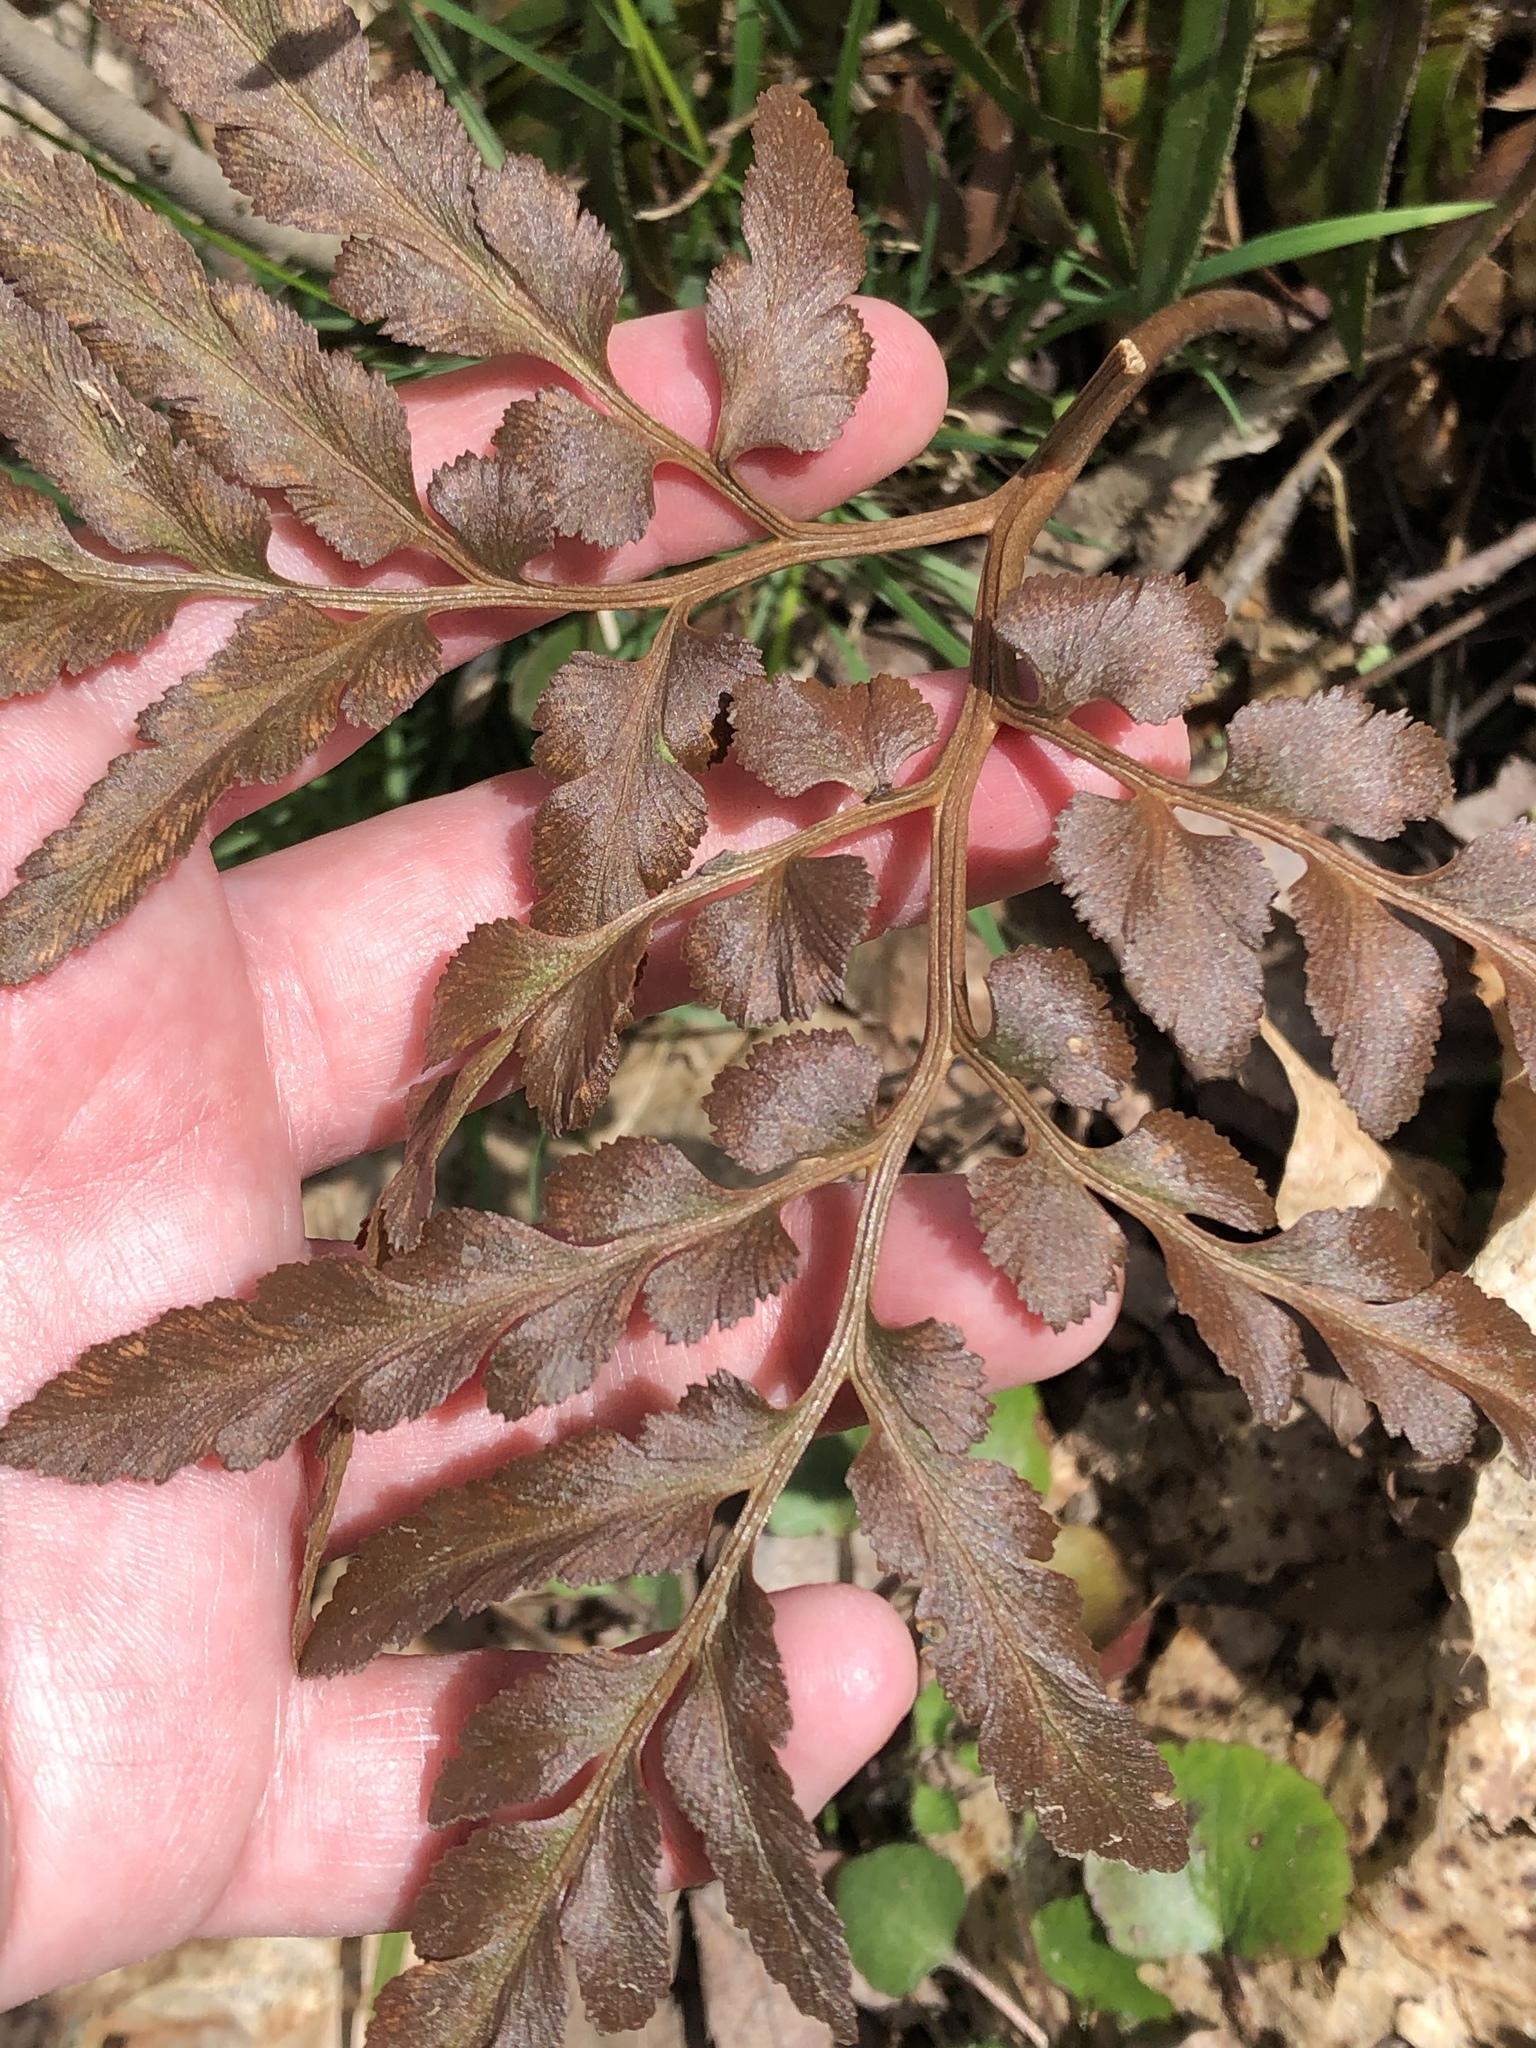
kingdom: Plantae
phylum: Tracheophyta
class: Polypodiopsida
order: Ophioglossales
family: Ophioglossaceae
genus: Sceptridium
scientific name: Sceptridium dissectum
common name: Cut-leaved grapefern
